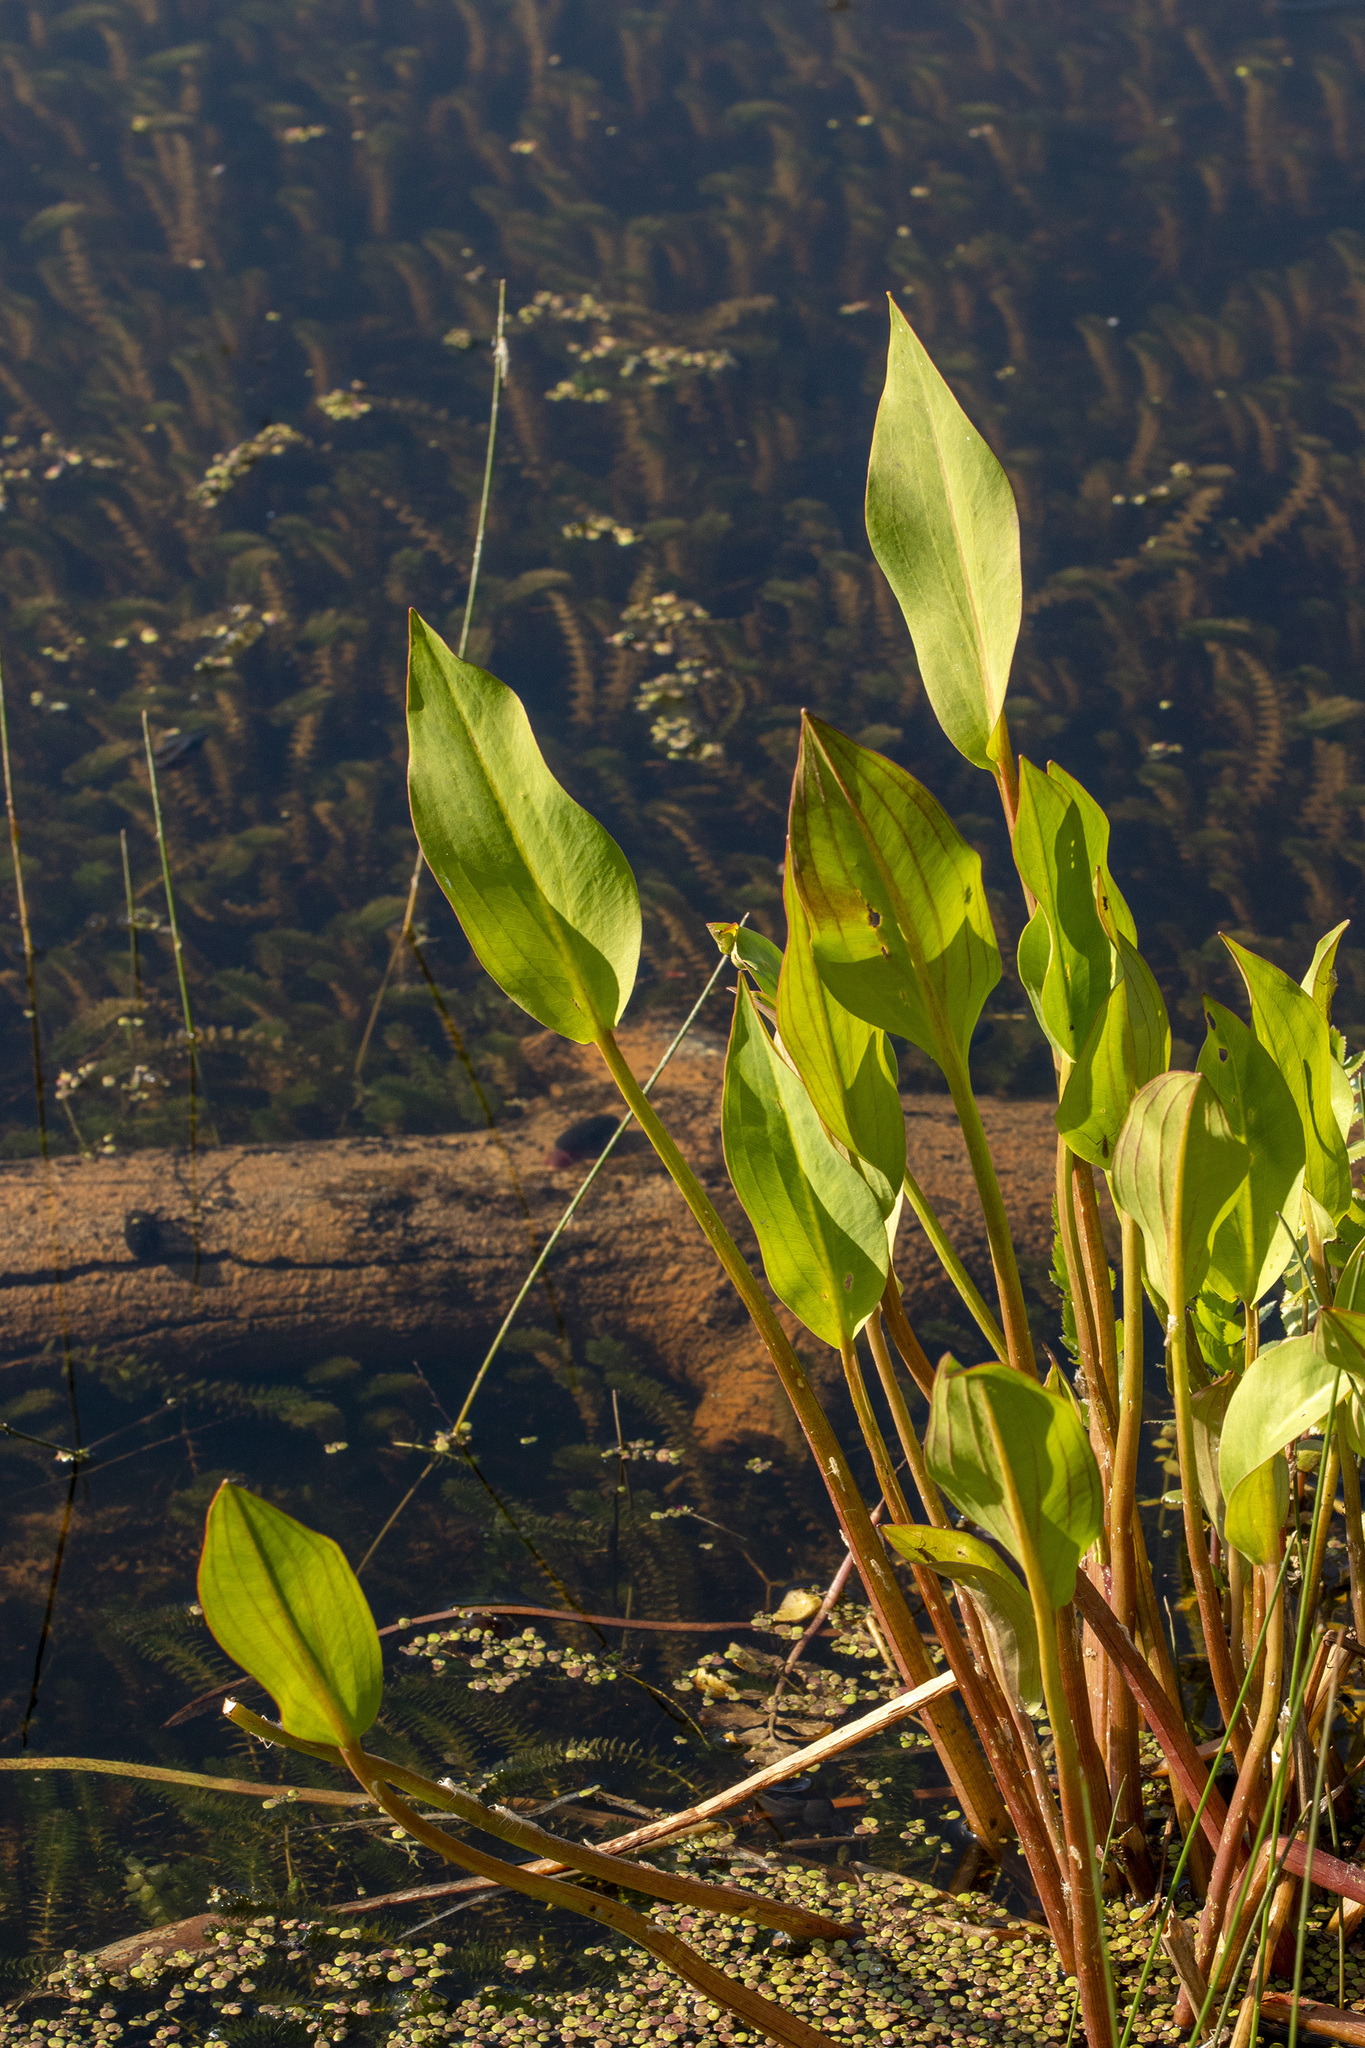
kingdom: Plantae
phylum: Tracheophyta
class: Liliopsida
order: Alismatales
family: Alismataceae
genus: Alisma
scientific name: Alisma plantago-aquatica
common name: Water-plantain
